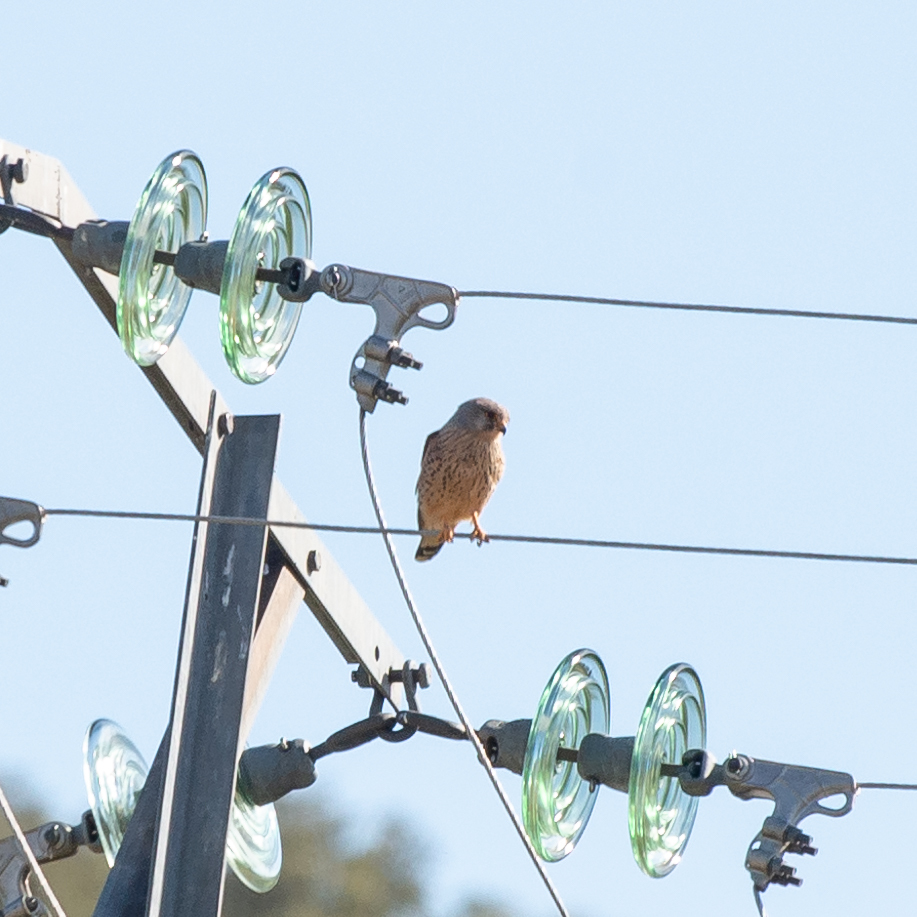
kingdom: Animalia
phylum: Chordata
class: Aves
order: Falconiformes
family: Falconidae
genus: Falco
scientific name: Falco tinnunculus
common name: Common kestrel
